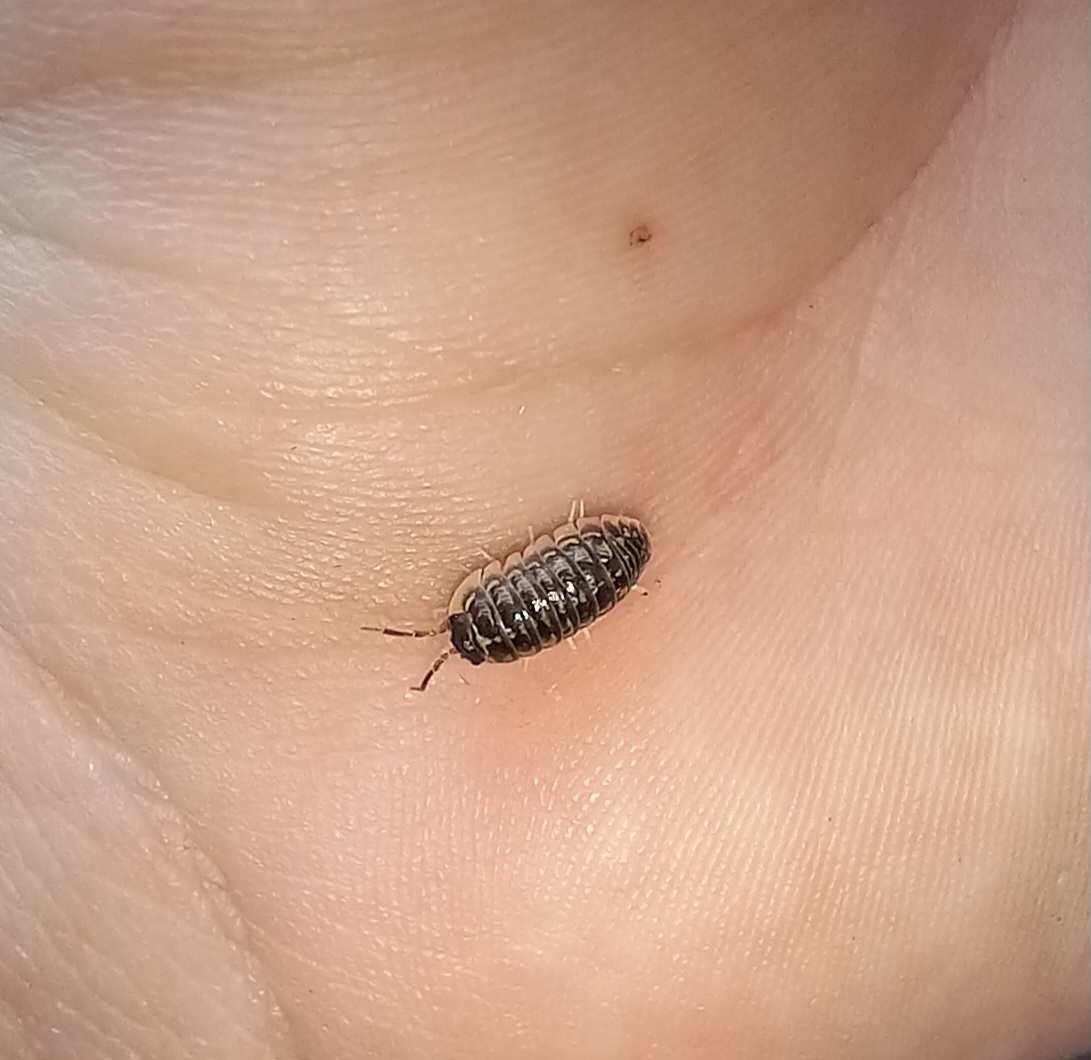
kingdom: Animalia
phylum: Arthropoda
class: Malacostraca
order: Isopoda
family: Armadillidiidae
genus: Armadillidium
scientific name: Armadillidium versicolor
